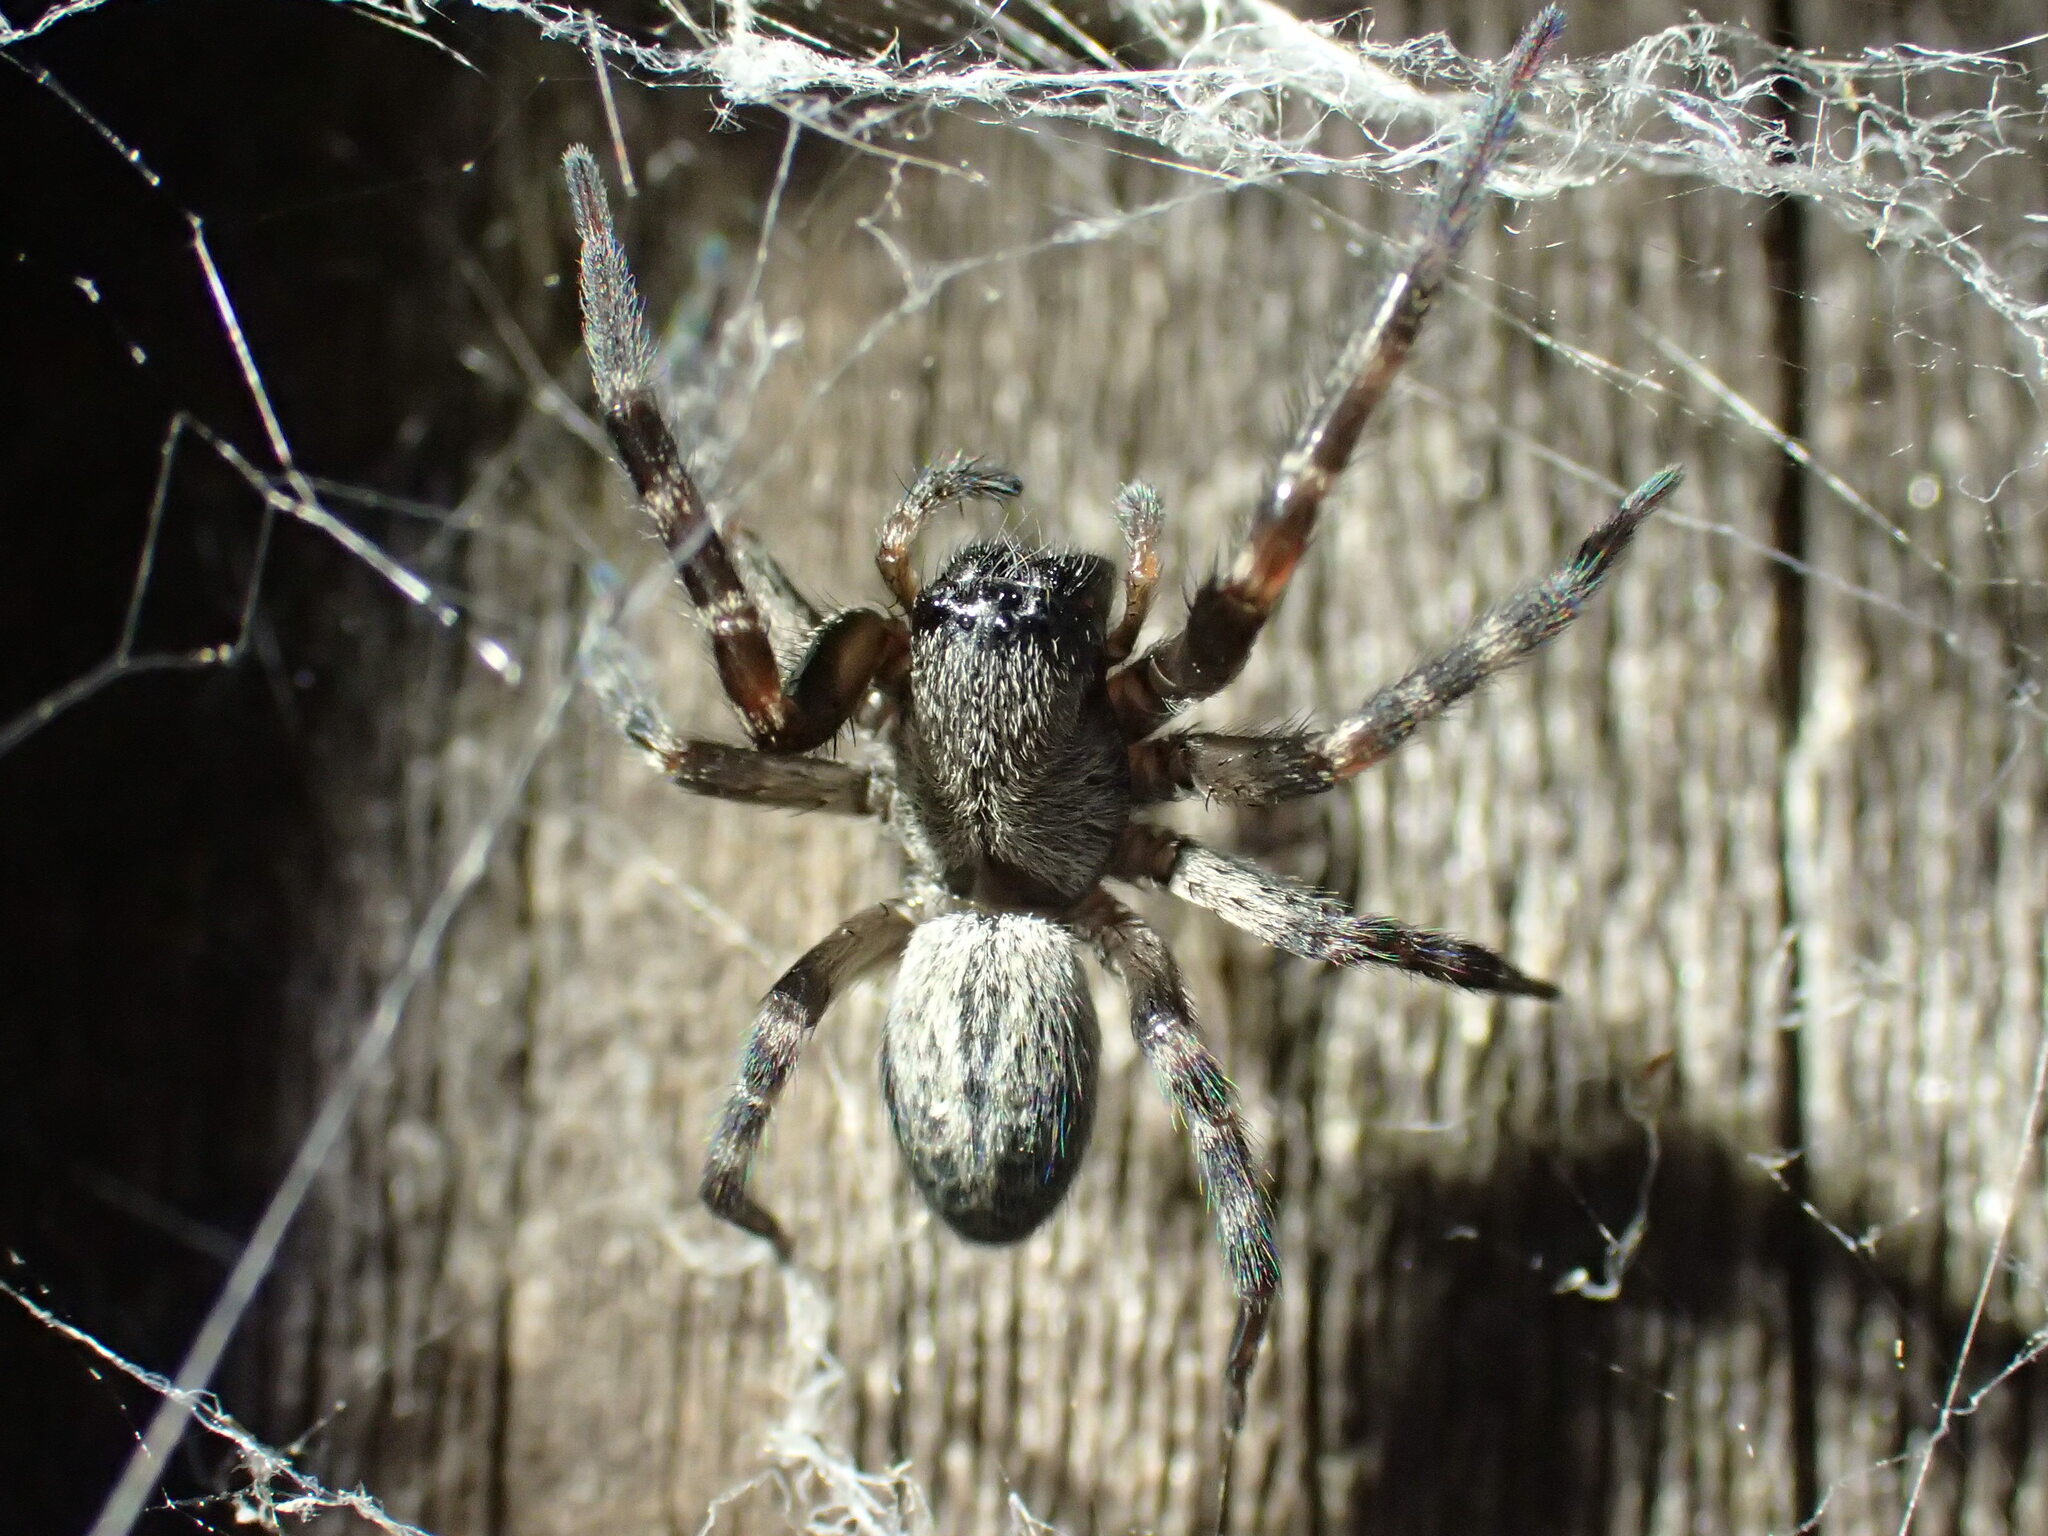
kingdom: Animalia
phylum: Arthropoda
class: Arachnida
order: Araneae
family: Desidae
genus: Badumna
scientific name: Badumna longinqua
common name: Gray house spider
